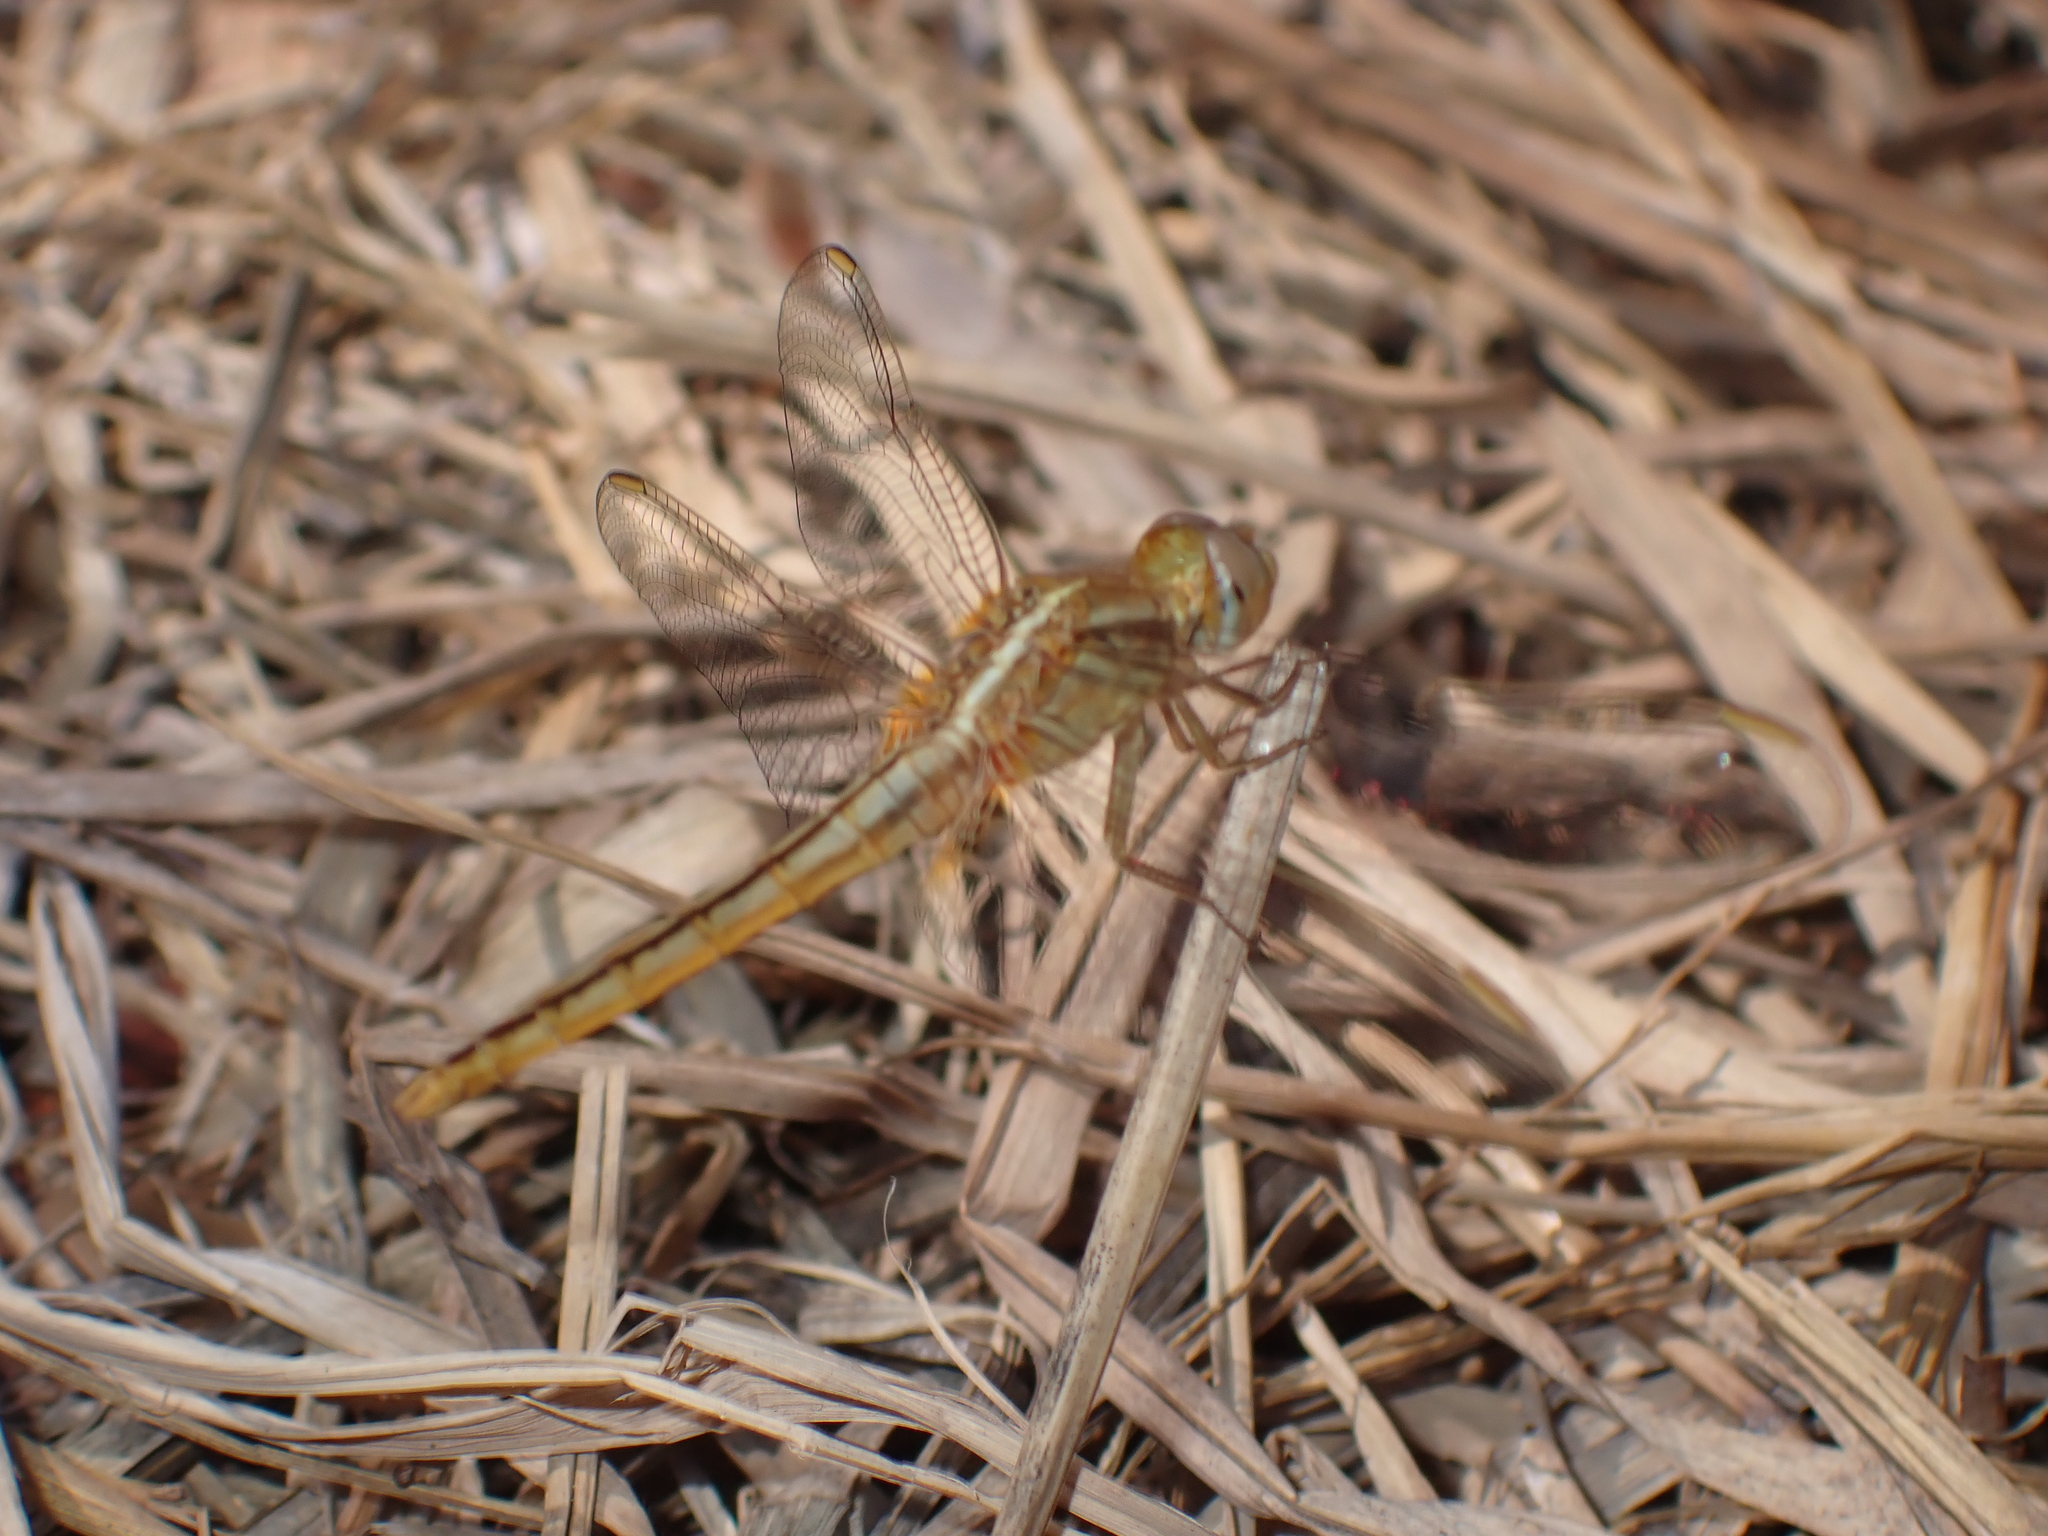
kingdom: Animalia
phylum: Arthropoda
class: Insecta
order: Odonata
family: Libellulidae
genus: Crocothemis
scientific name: Crocothemis servilia
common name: Scarlet skimmer
